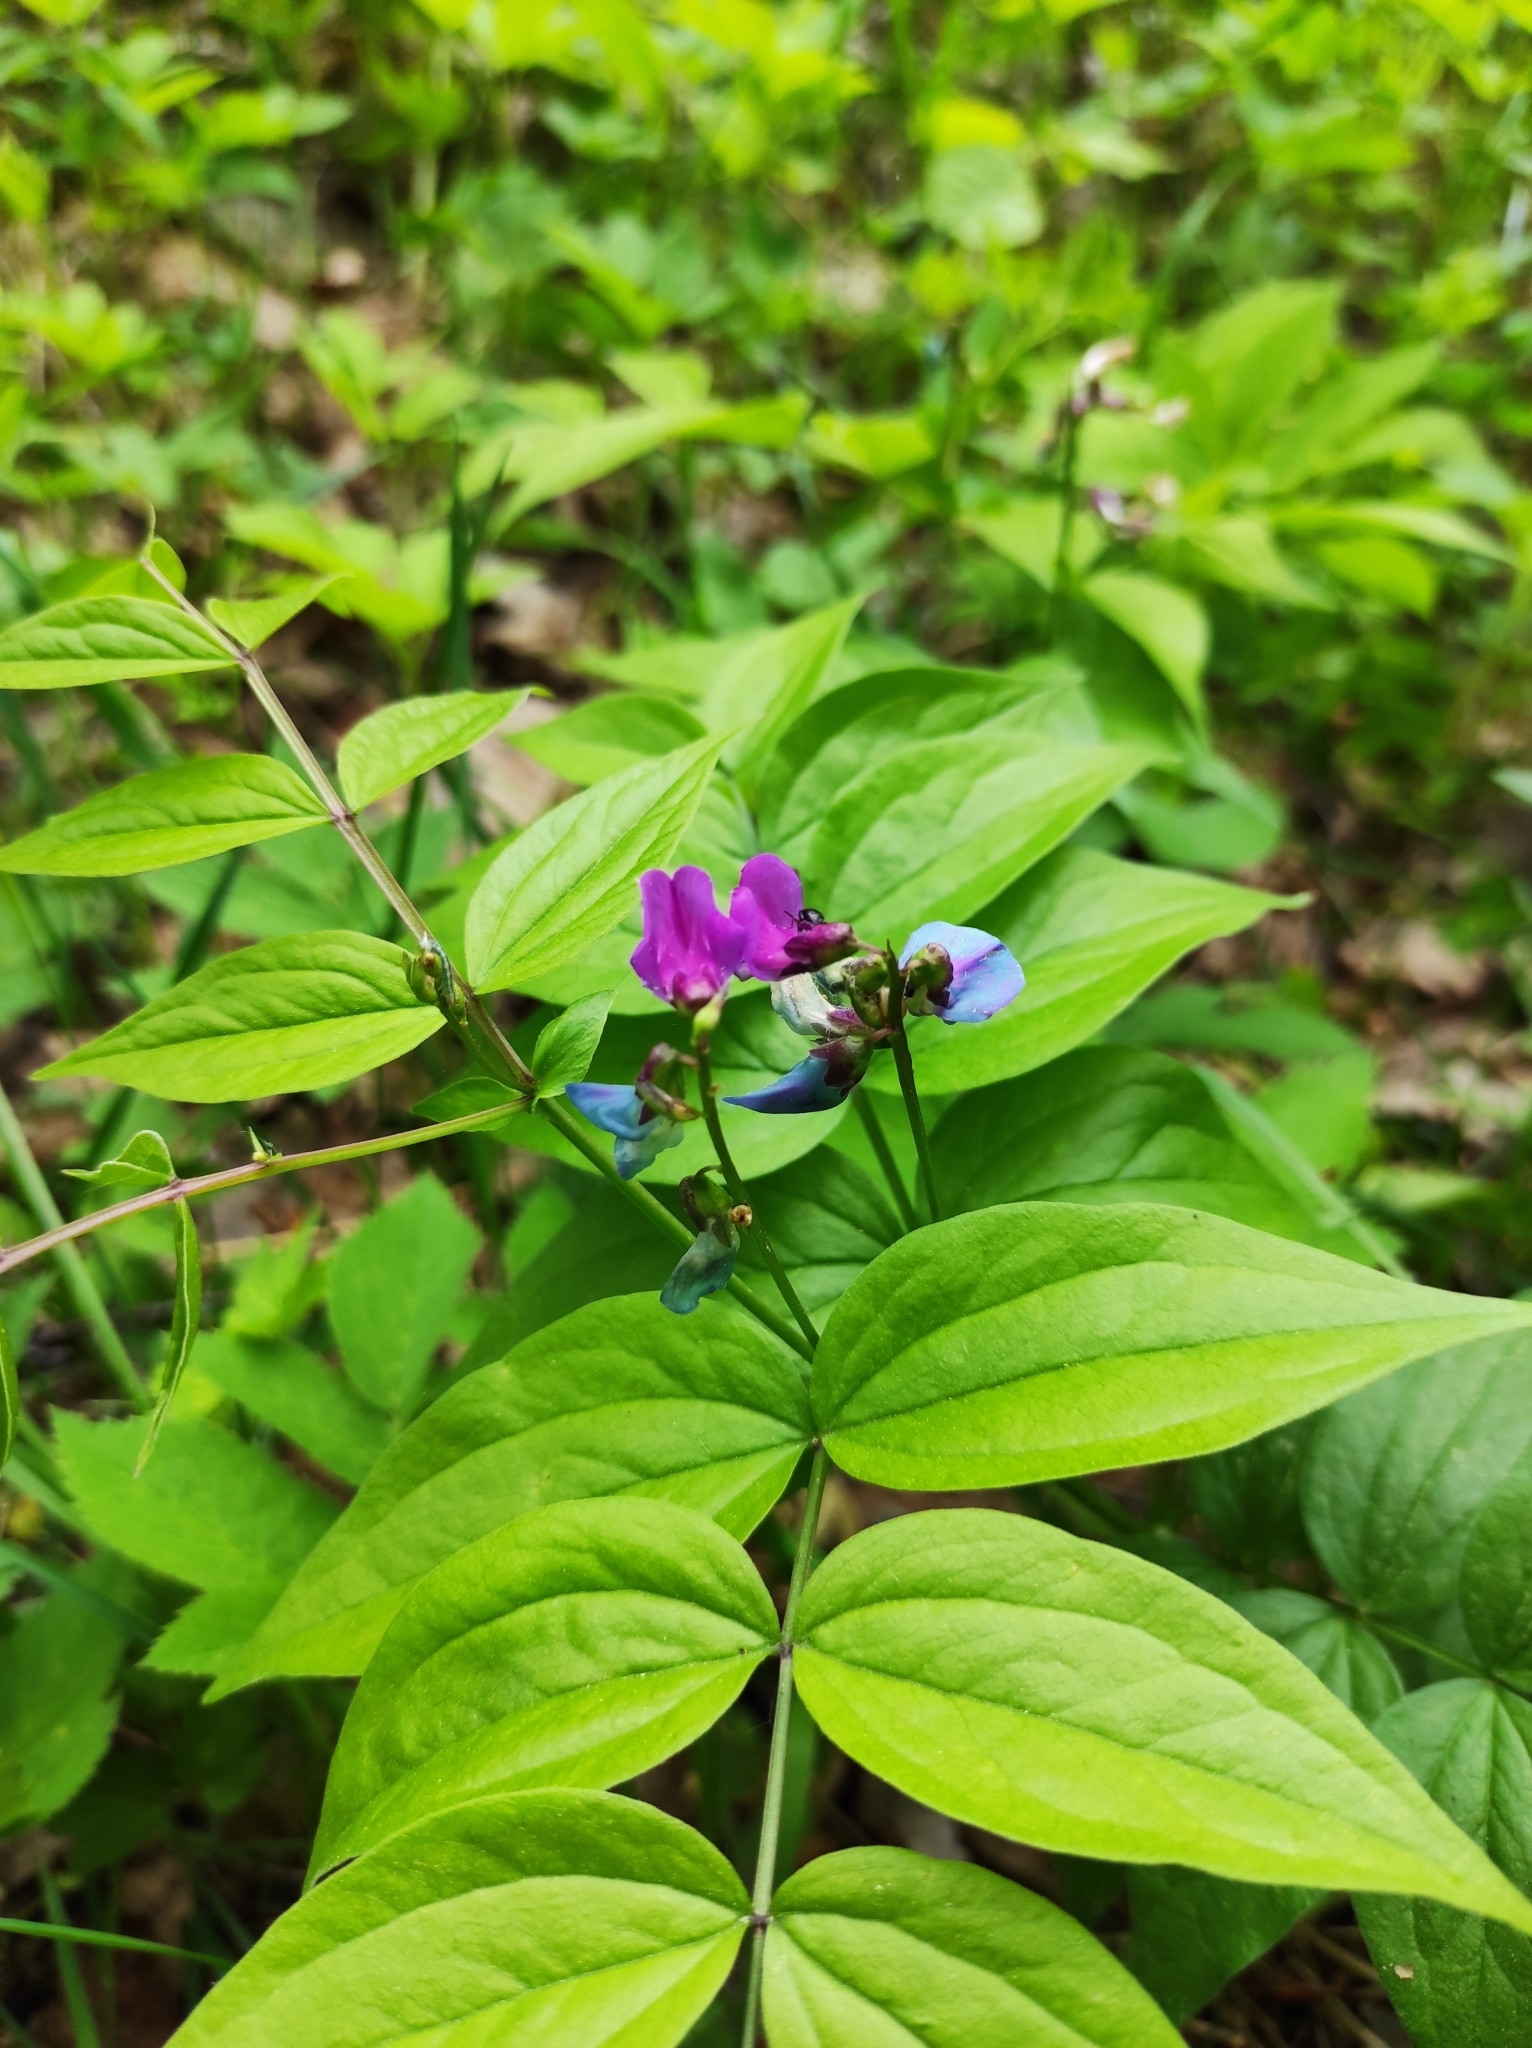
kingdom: Plantae
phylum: Tracheophyta
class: Magnoliopsida
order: Fabales
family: Fabaceae
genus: Lathyrus
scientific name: Lathyrus vernus
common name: Spring pea
